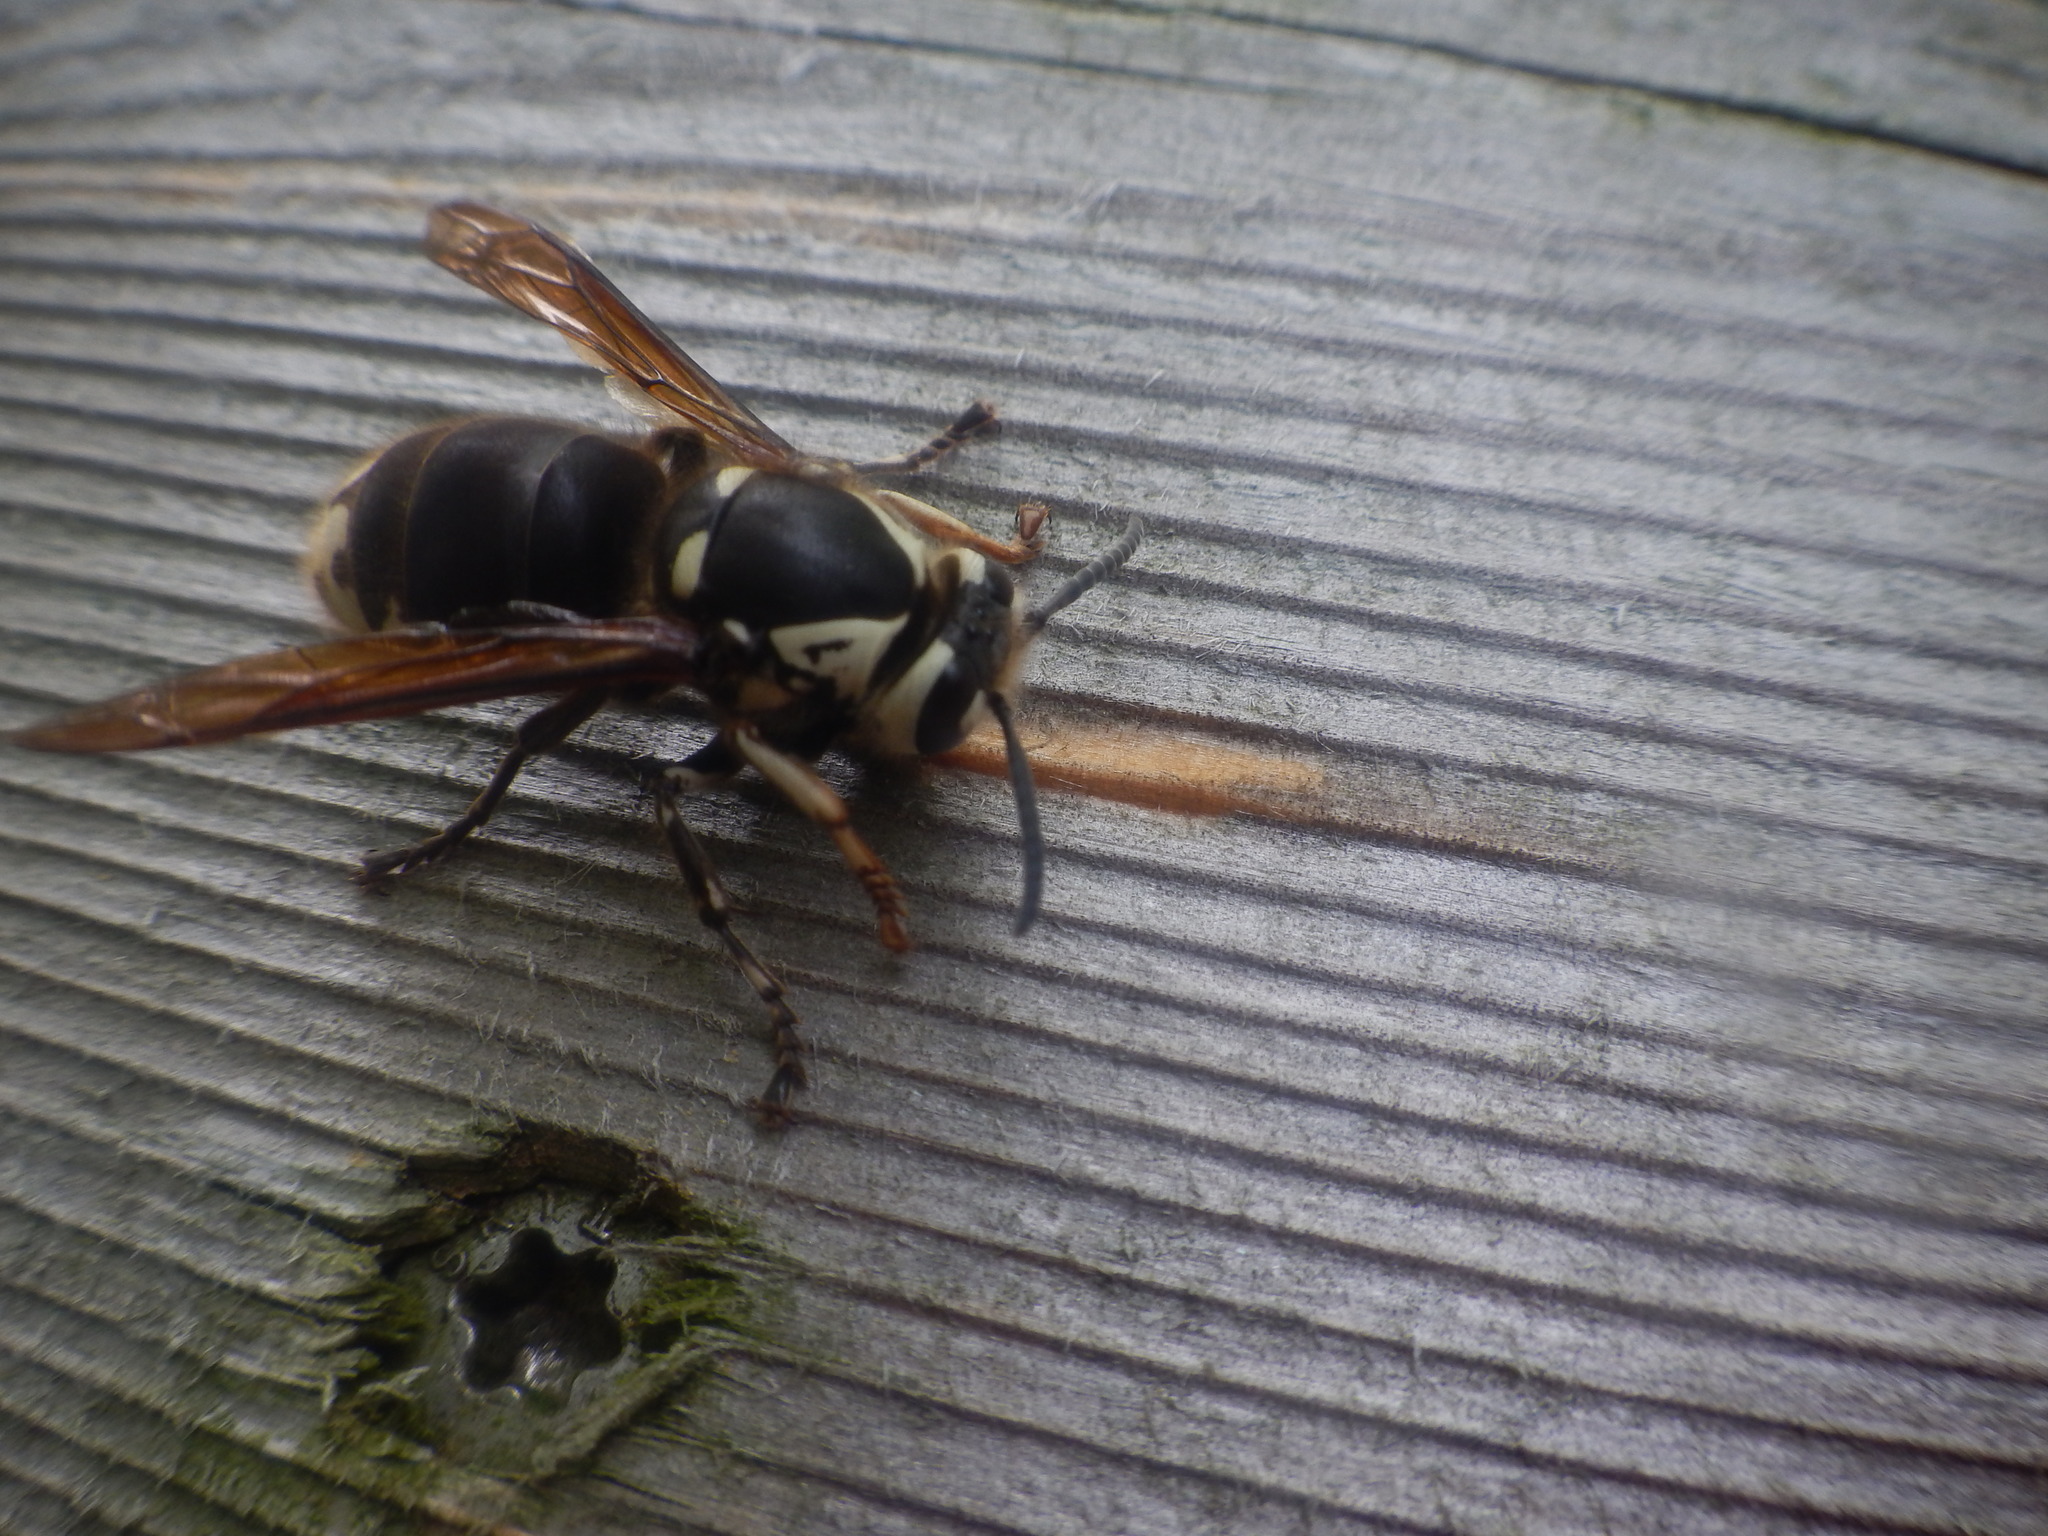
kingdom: Animalia
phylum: Arthropoda
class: Insecta
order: Hymenoptera
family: Vespidae
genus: Dolichovespula
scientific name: Dolichovespula maculata
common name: Bald-faced hornet
